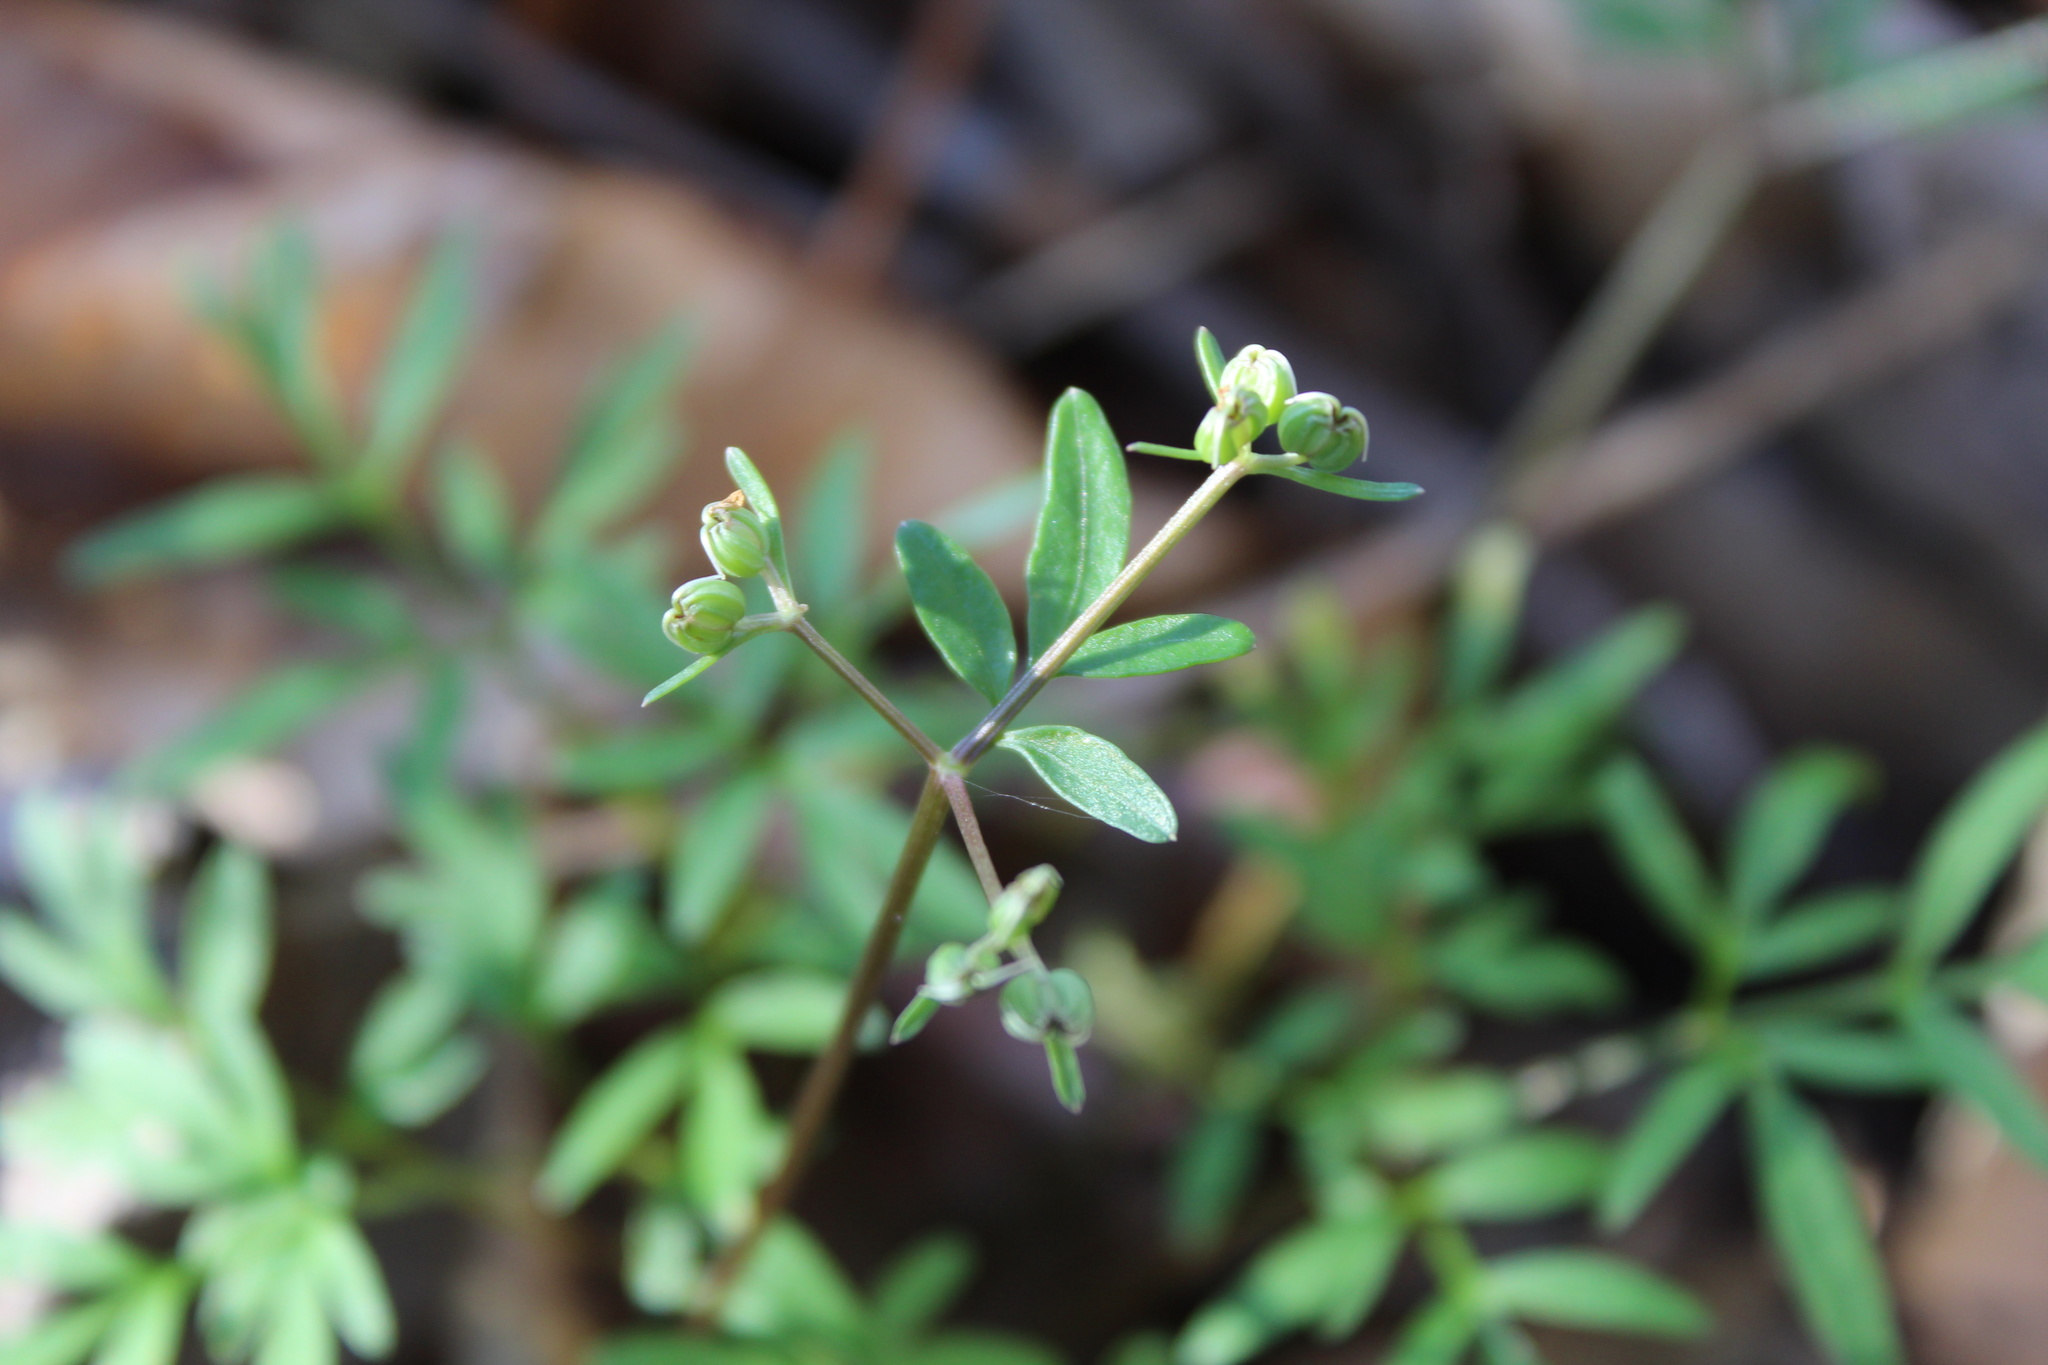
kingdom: Plantae
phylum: Tracheophyta
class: Magnoliopsida
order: Apiales
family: Apiaceae
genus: Erigenia
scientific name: Erigenia bulbosa
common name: Pepper-and-salt
